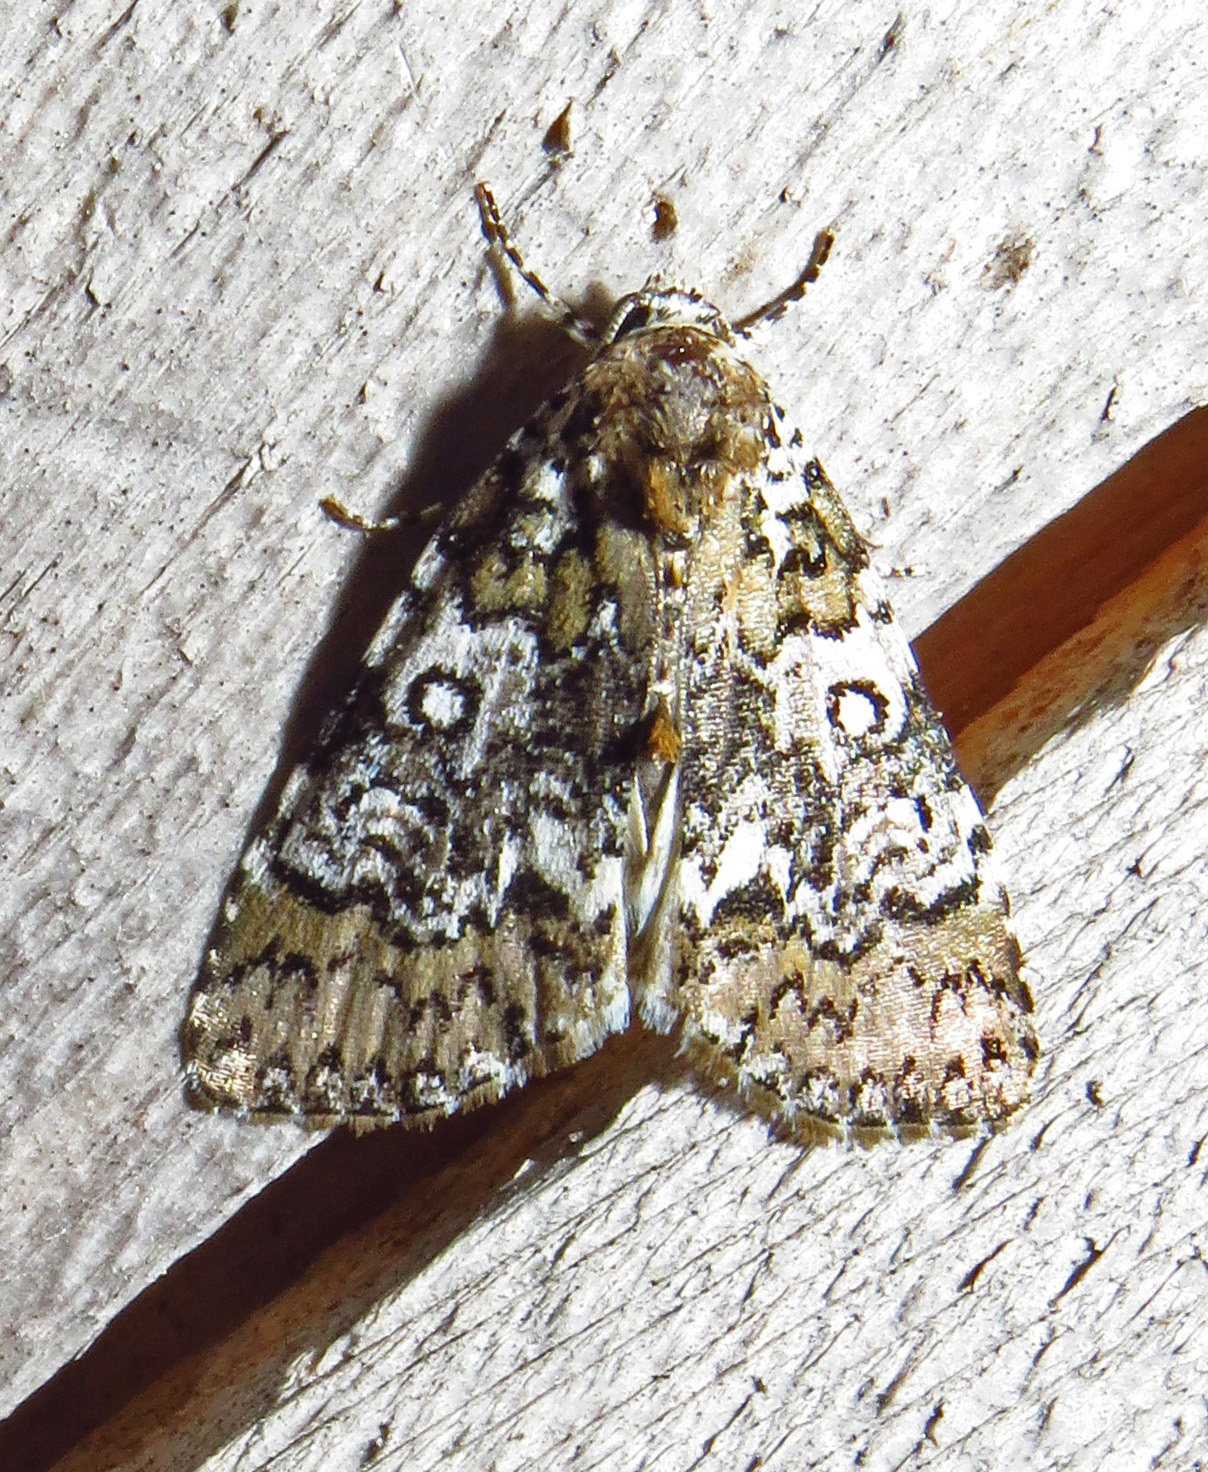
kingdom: Animalia
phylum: Arthropoda
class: Insecta
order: Lepidoptera
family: Noctuidae
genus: Cerma
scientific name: Cerma cora
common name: Bird dropping moth
